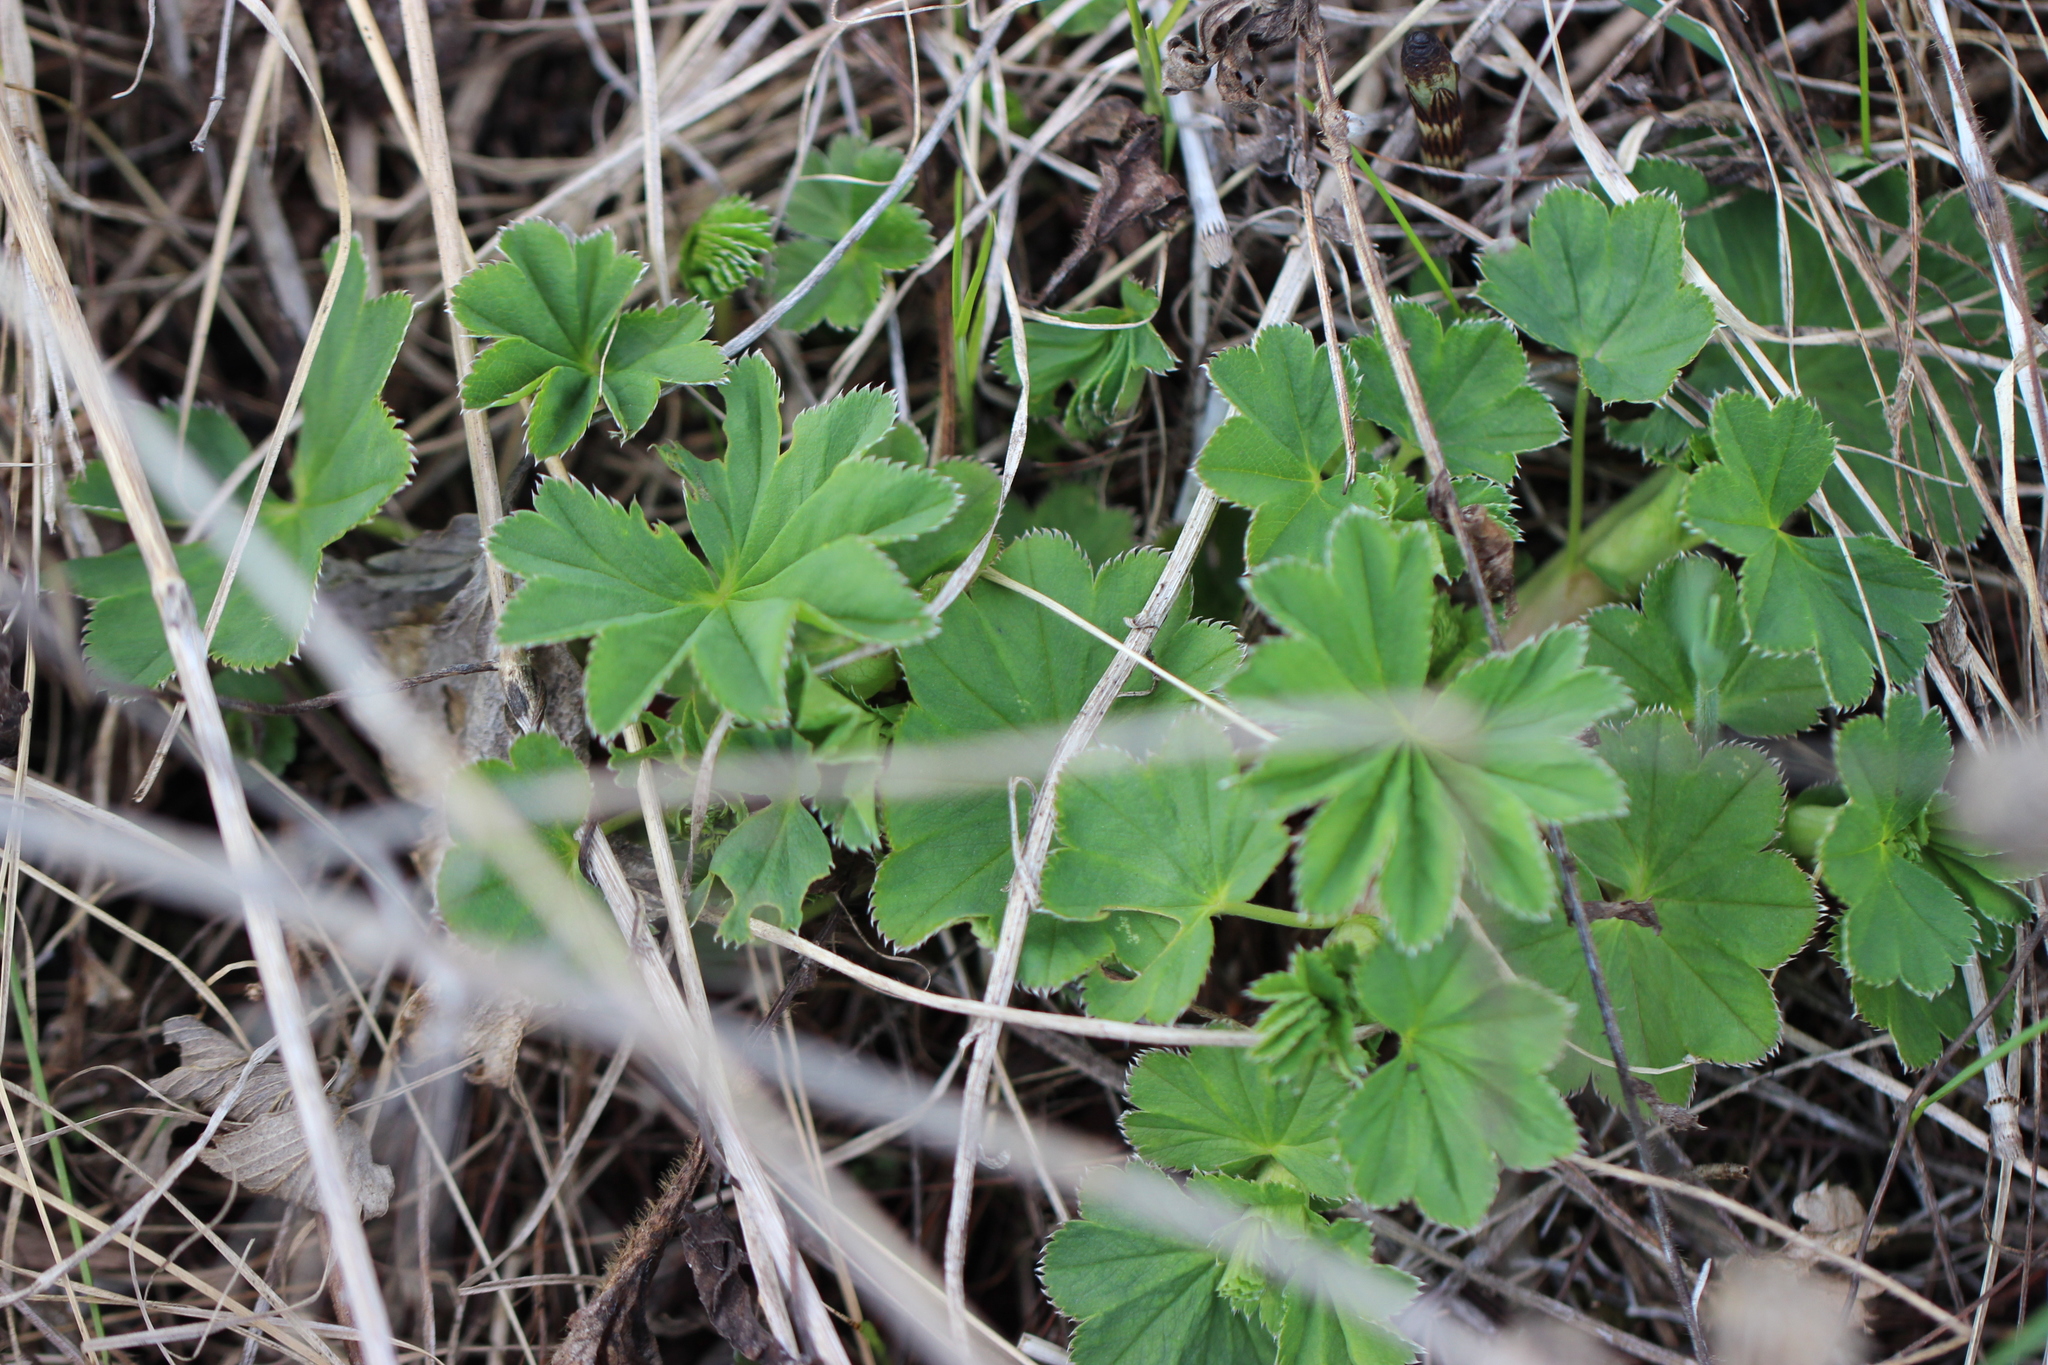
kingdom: Plantae
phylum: Tracheophyta
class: Magnoliopsida
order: Rosales
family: Rosaceae
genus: Alchemilla
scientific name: Alchemilla
